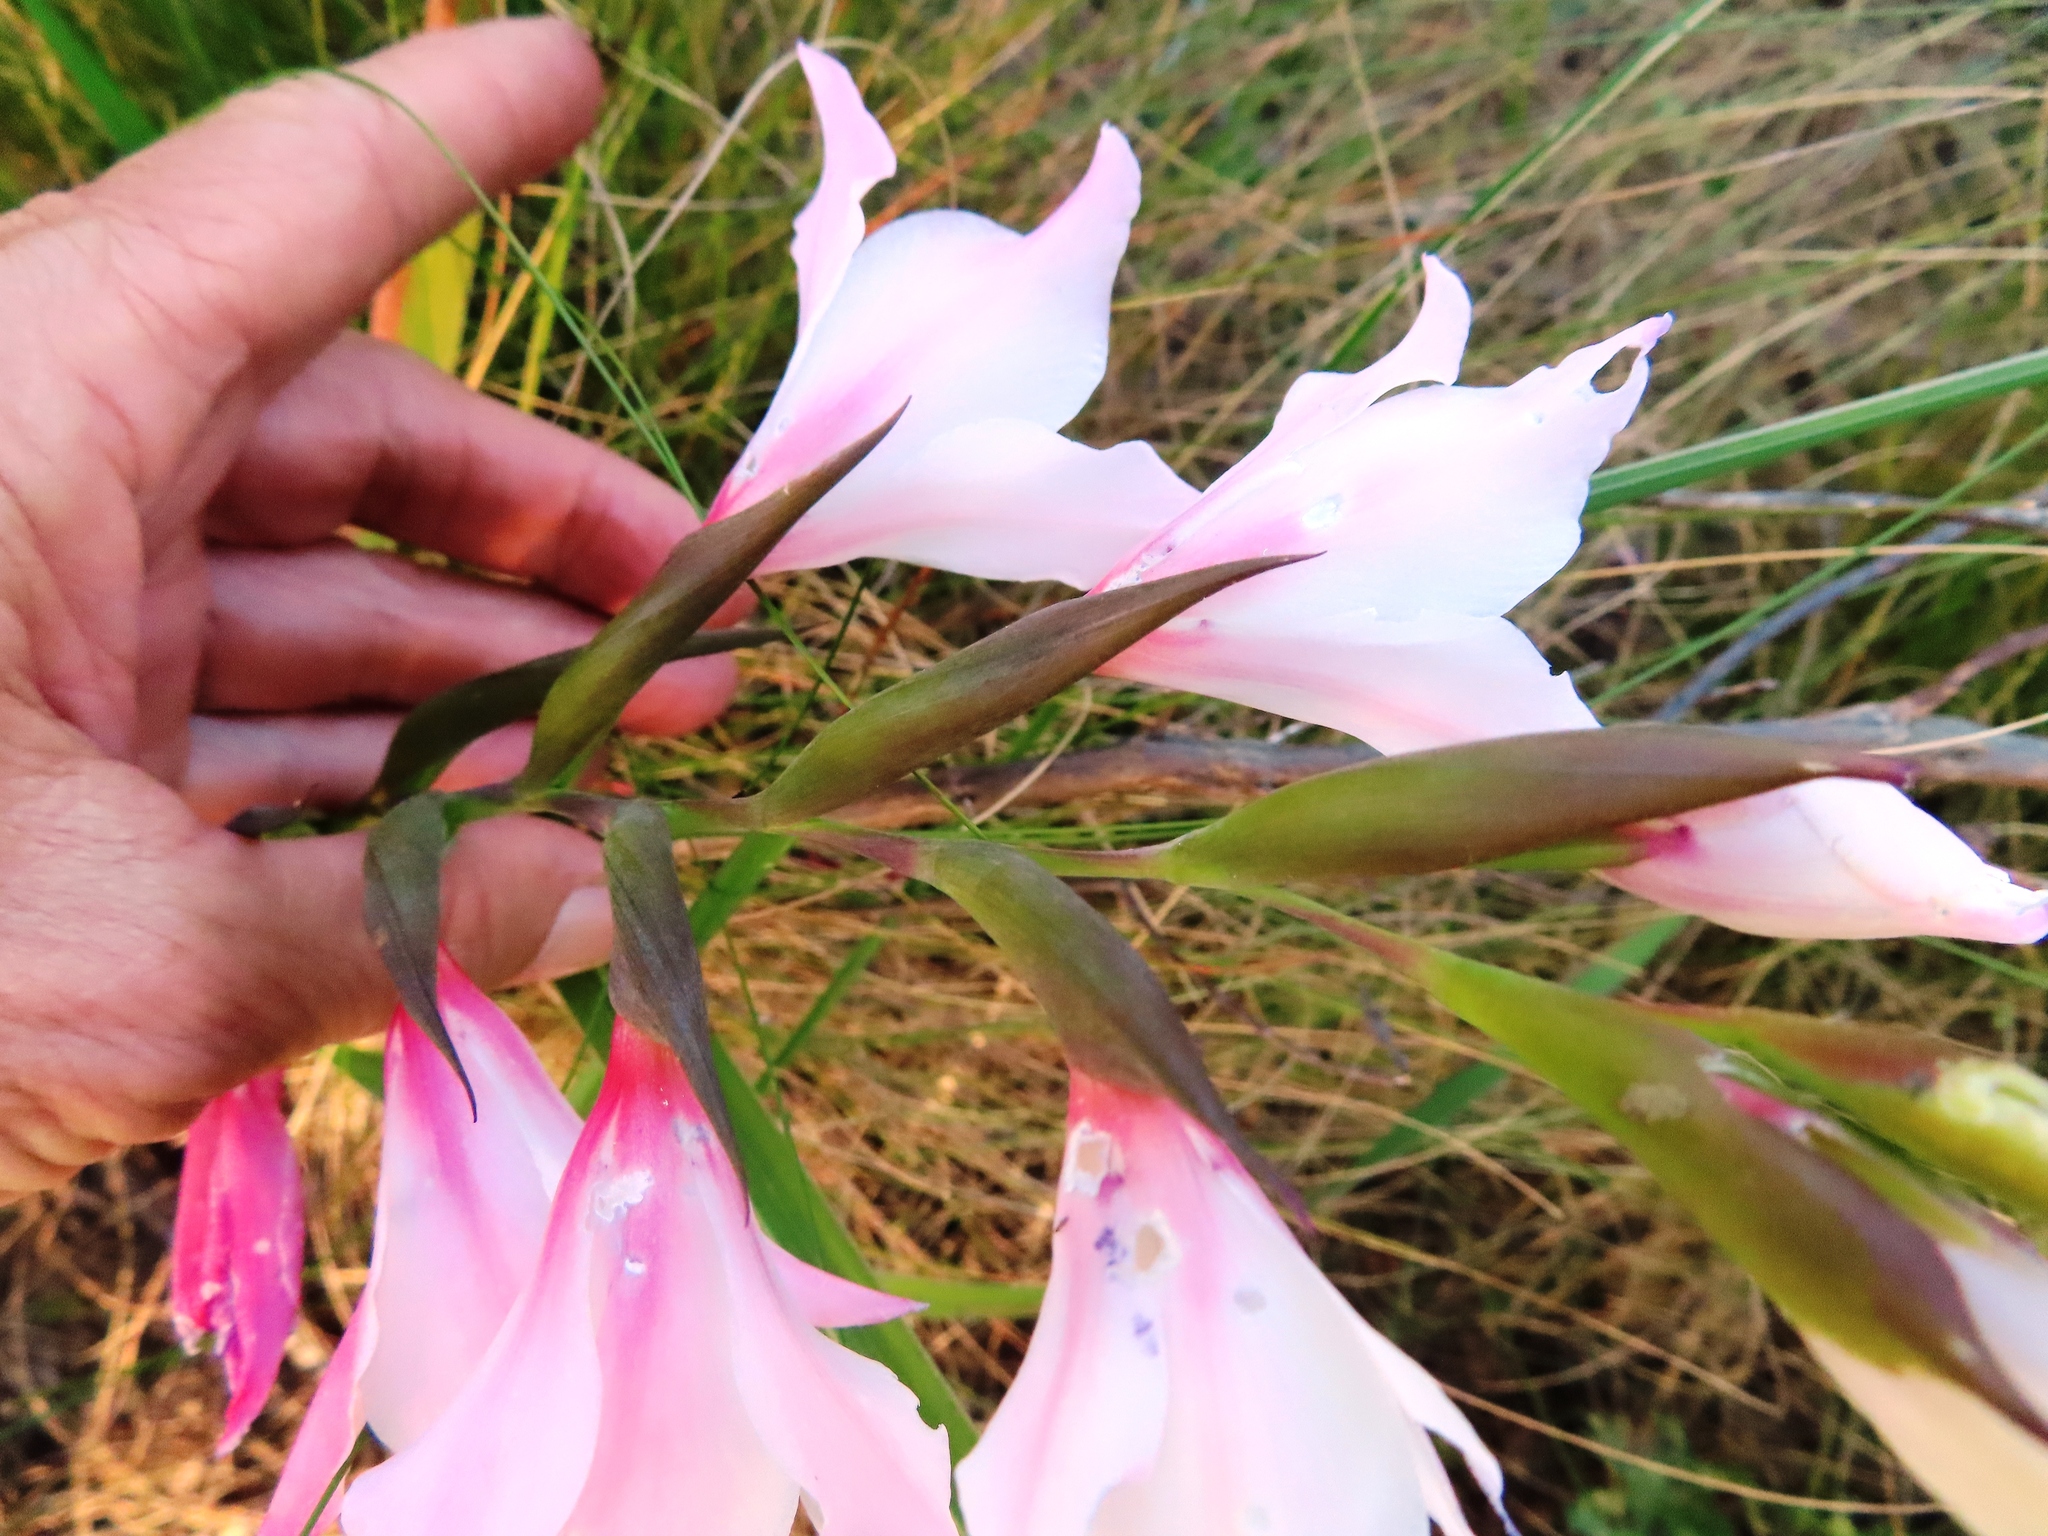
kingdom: Plantae
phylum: Tracheophyta
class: Liliopsida
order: Asparagales
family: Iridaceae
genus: Gladiolus
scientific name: Gladiolus carneus
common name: Painted-lady
